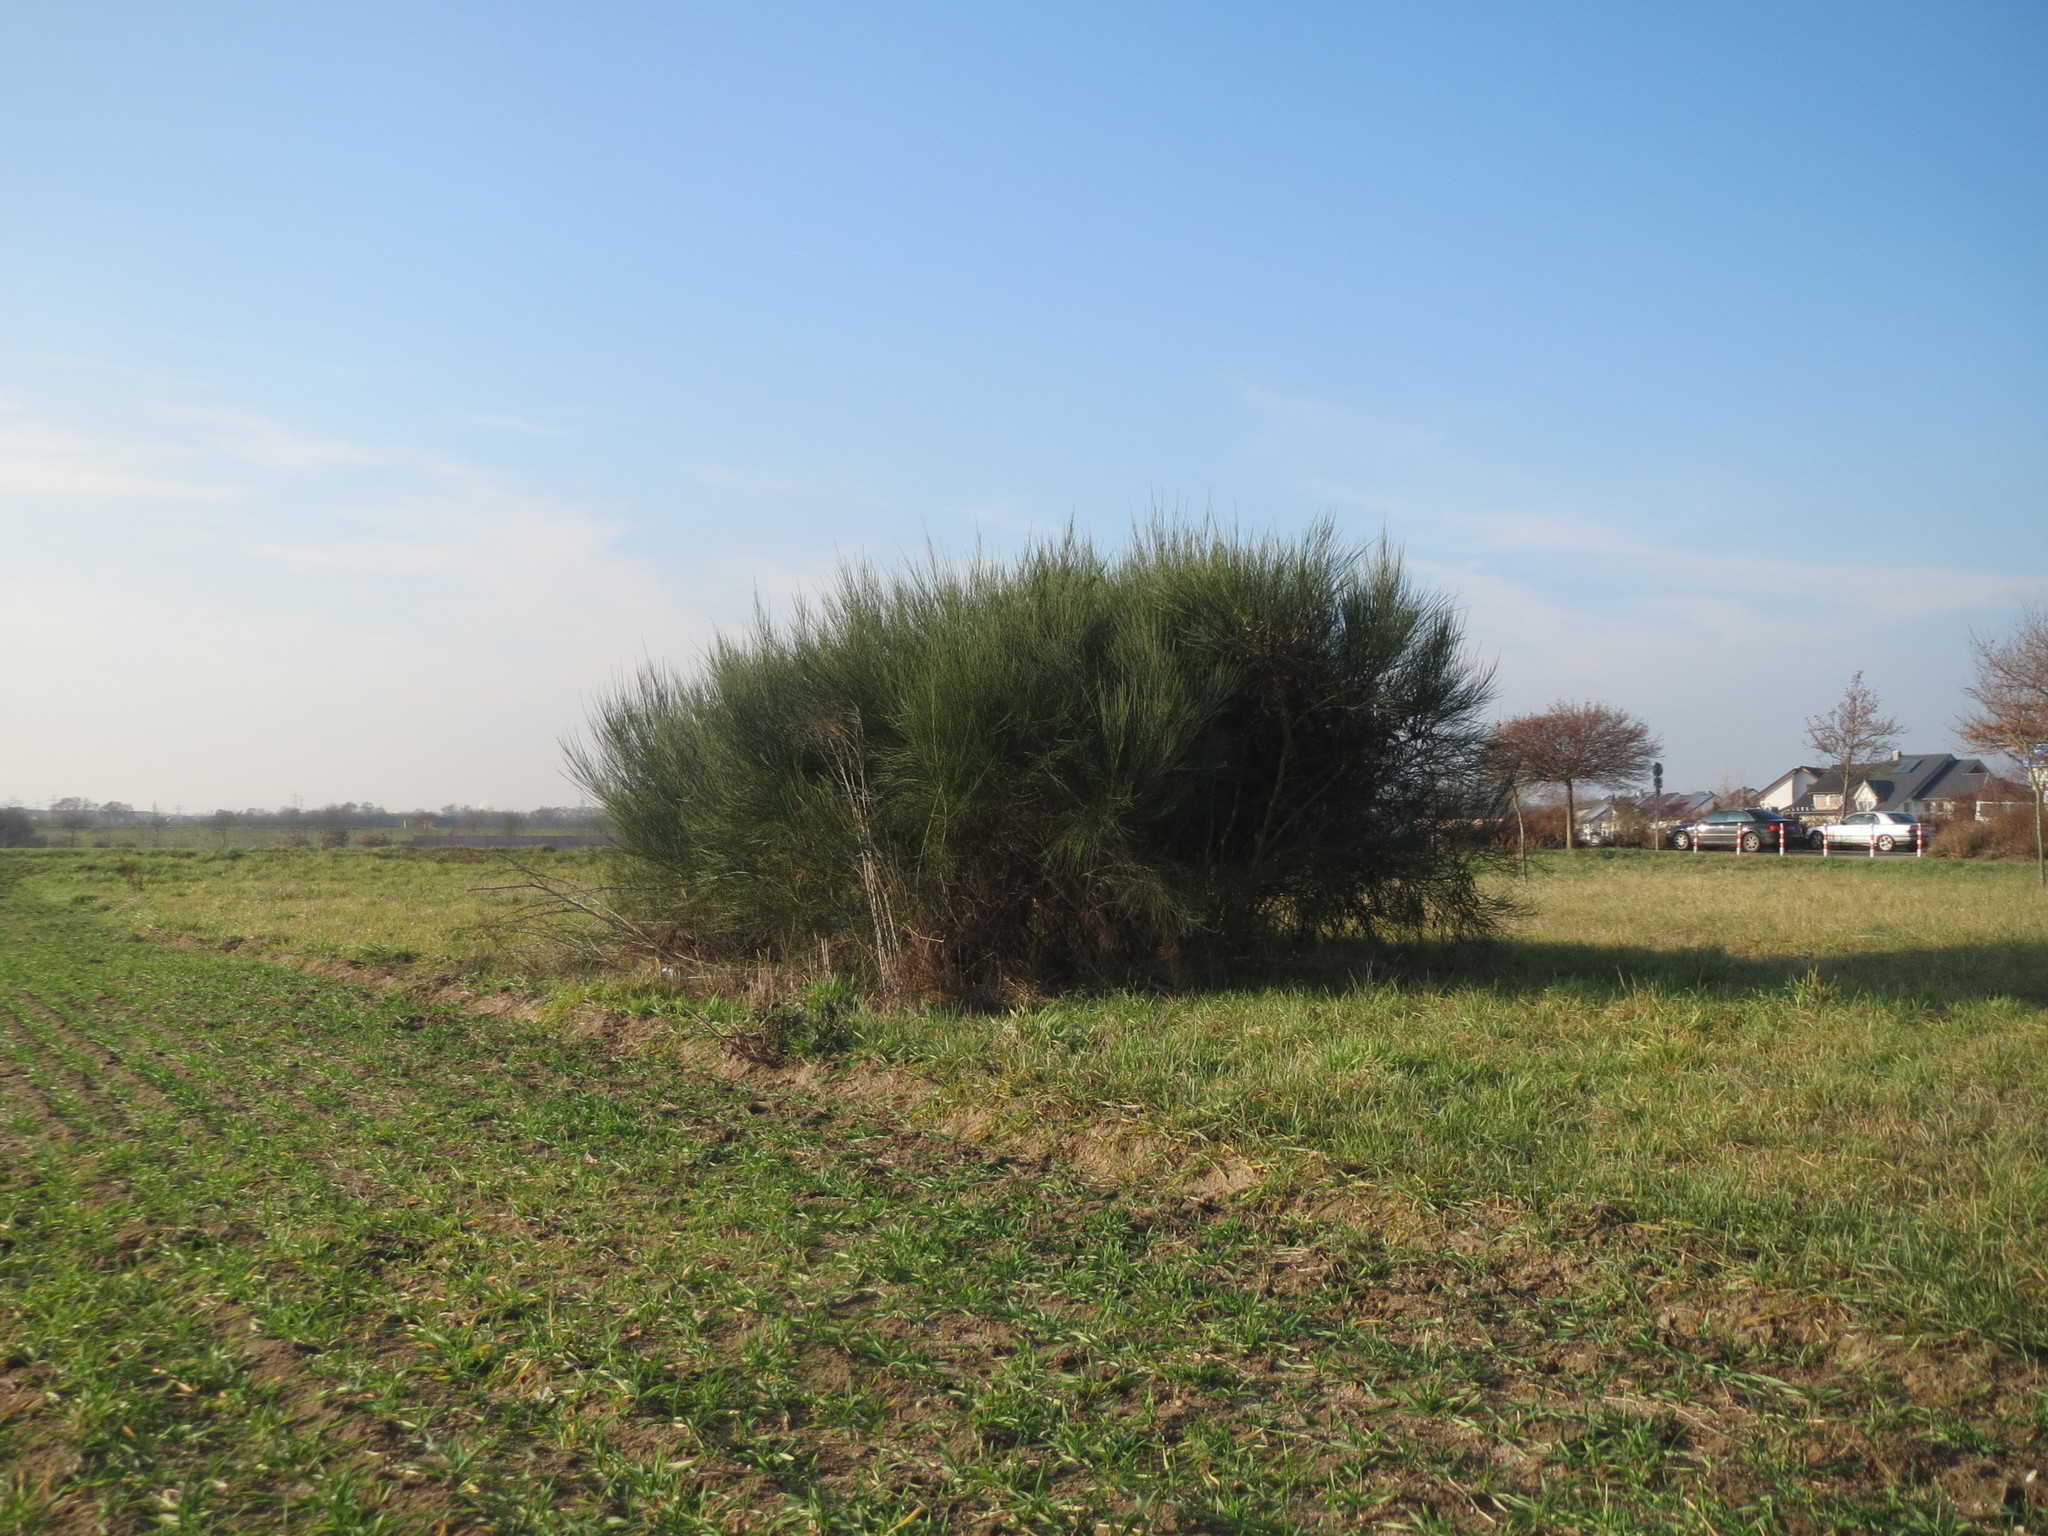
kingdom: Plantae
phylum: Tracheophyta
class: Magnoliopsida
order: Fabales
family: Fabaceae
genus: Cytisus
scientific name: Cytisus scoparius
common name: Scotch broom
